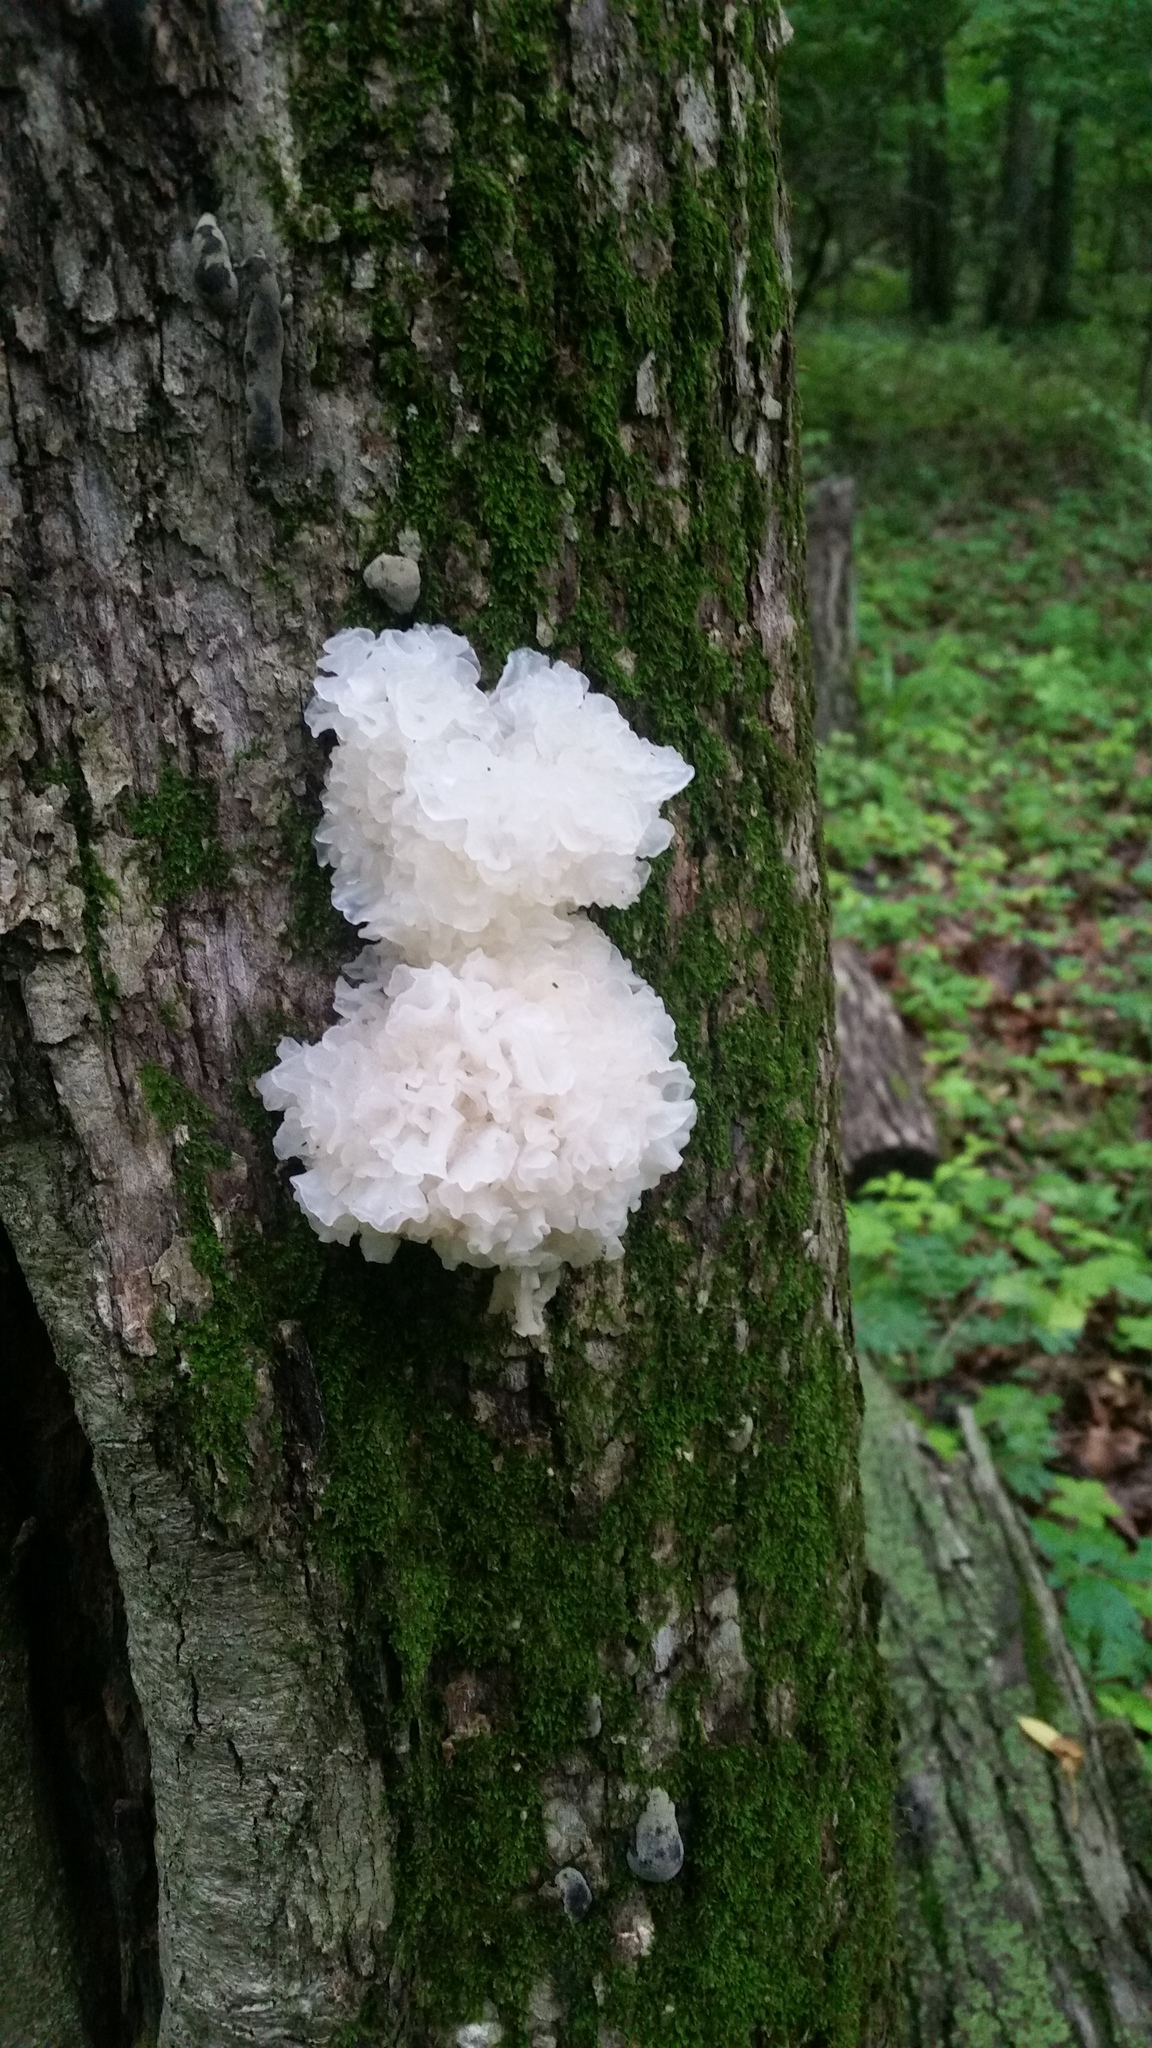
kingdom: Fungi
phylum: Basidiomycota
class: Tremellomycetes
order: Tremellales
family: Tremellaceae
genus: Tremella
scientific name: Tremella fuciformis
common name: Snow fungus
